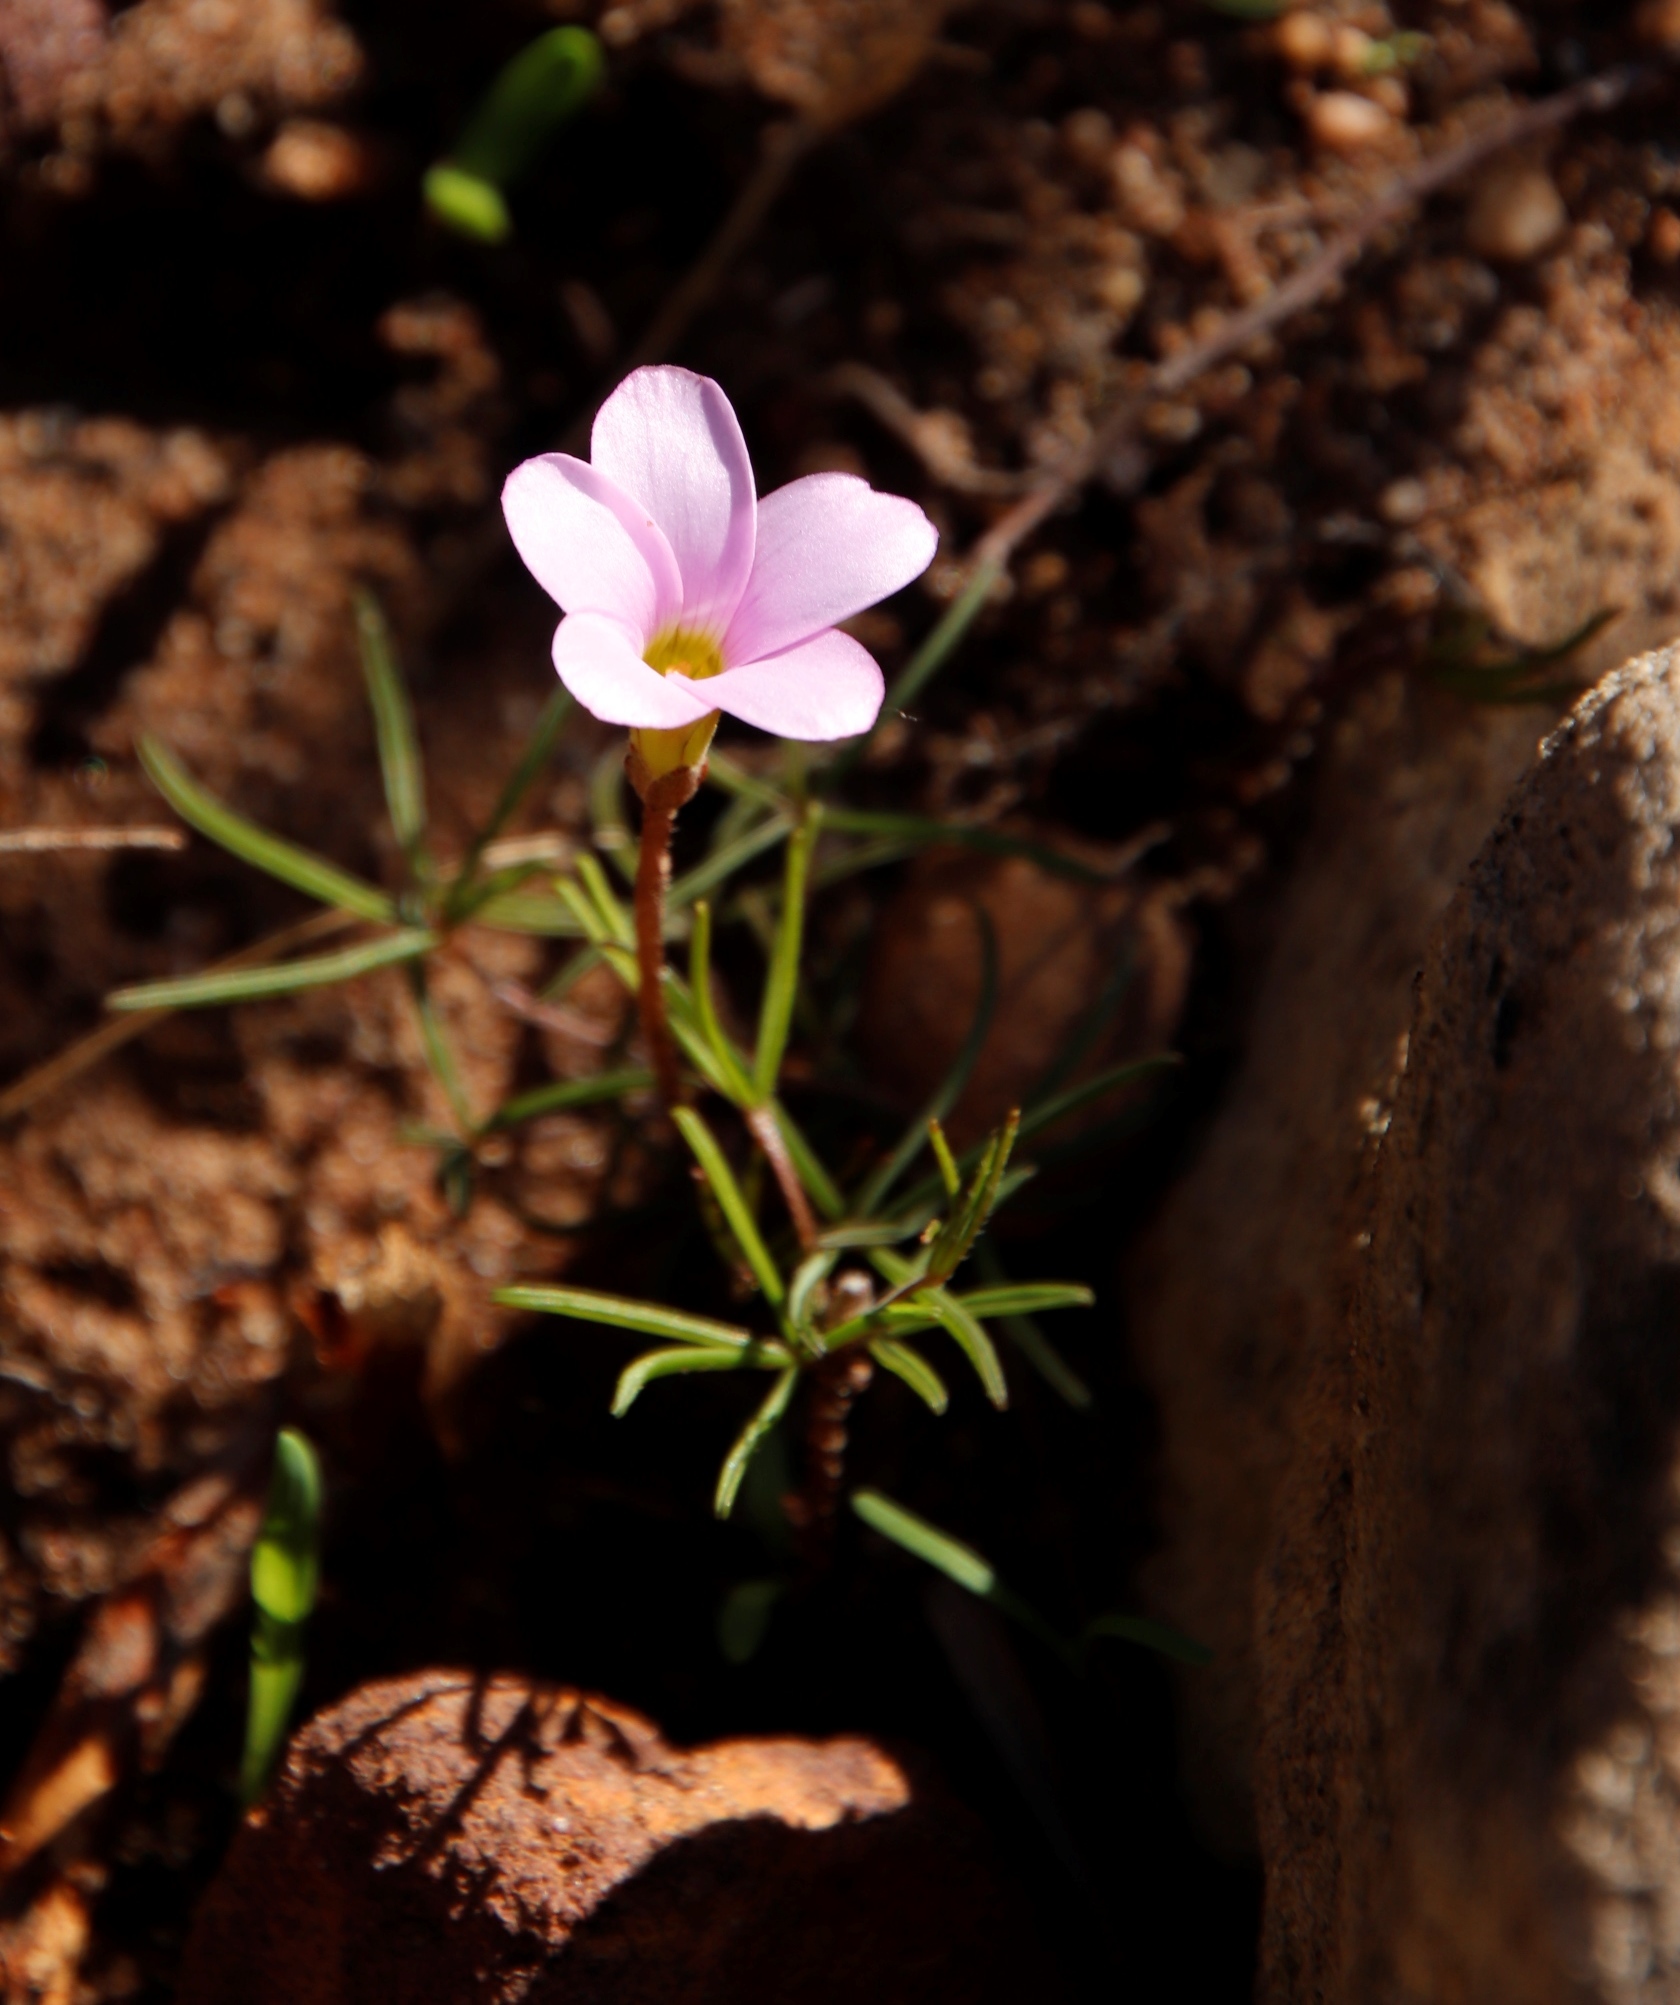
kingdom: Plantae
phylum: Tracheophyta
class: Magnoliopsida
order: Oxalidales
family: Oxalidaceae
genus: Oxalis
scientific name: Oxalis polyphylla
